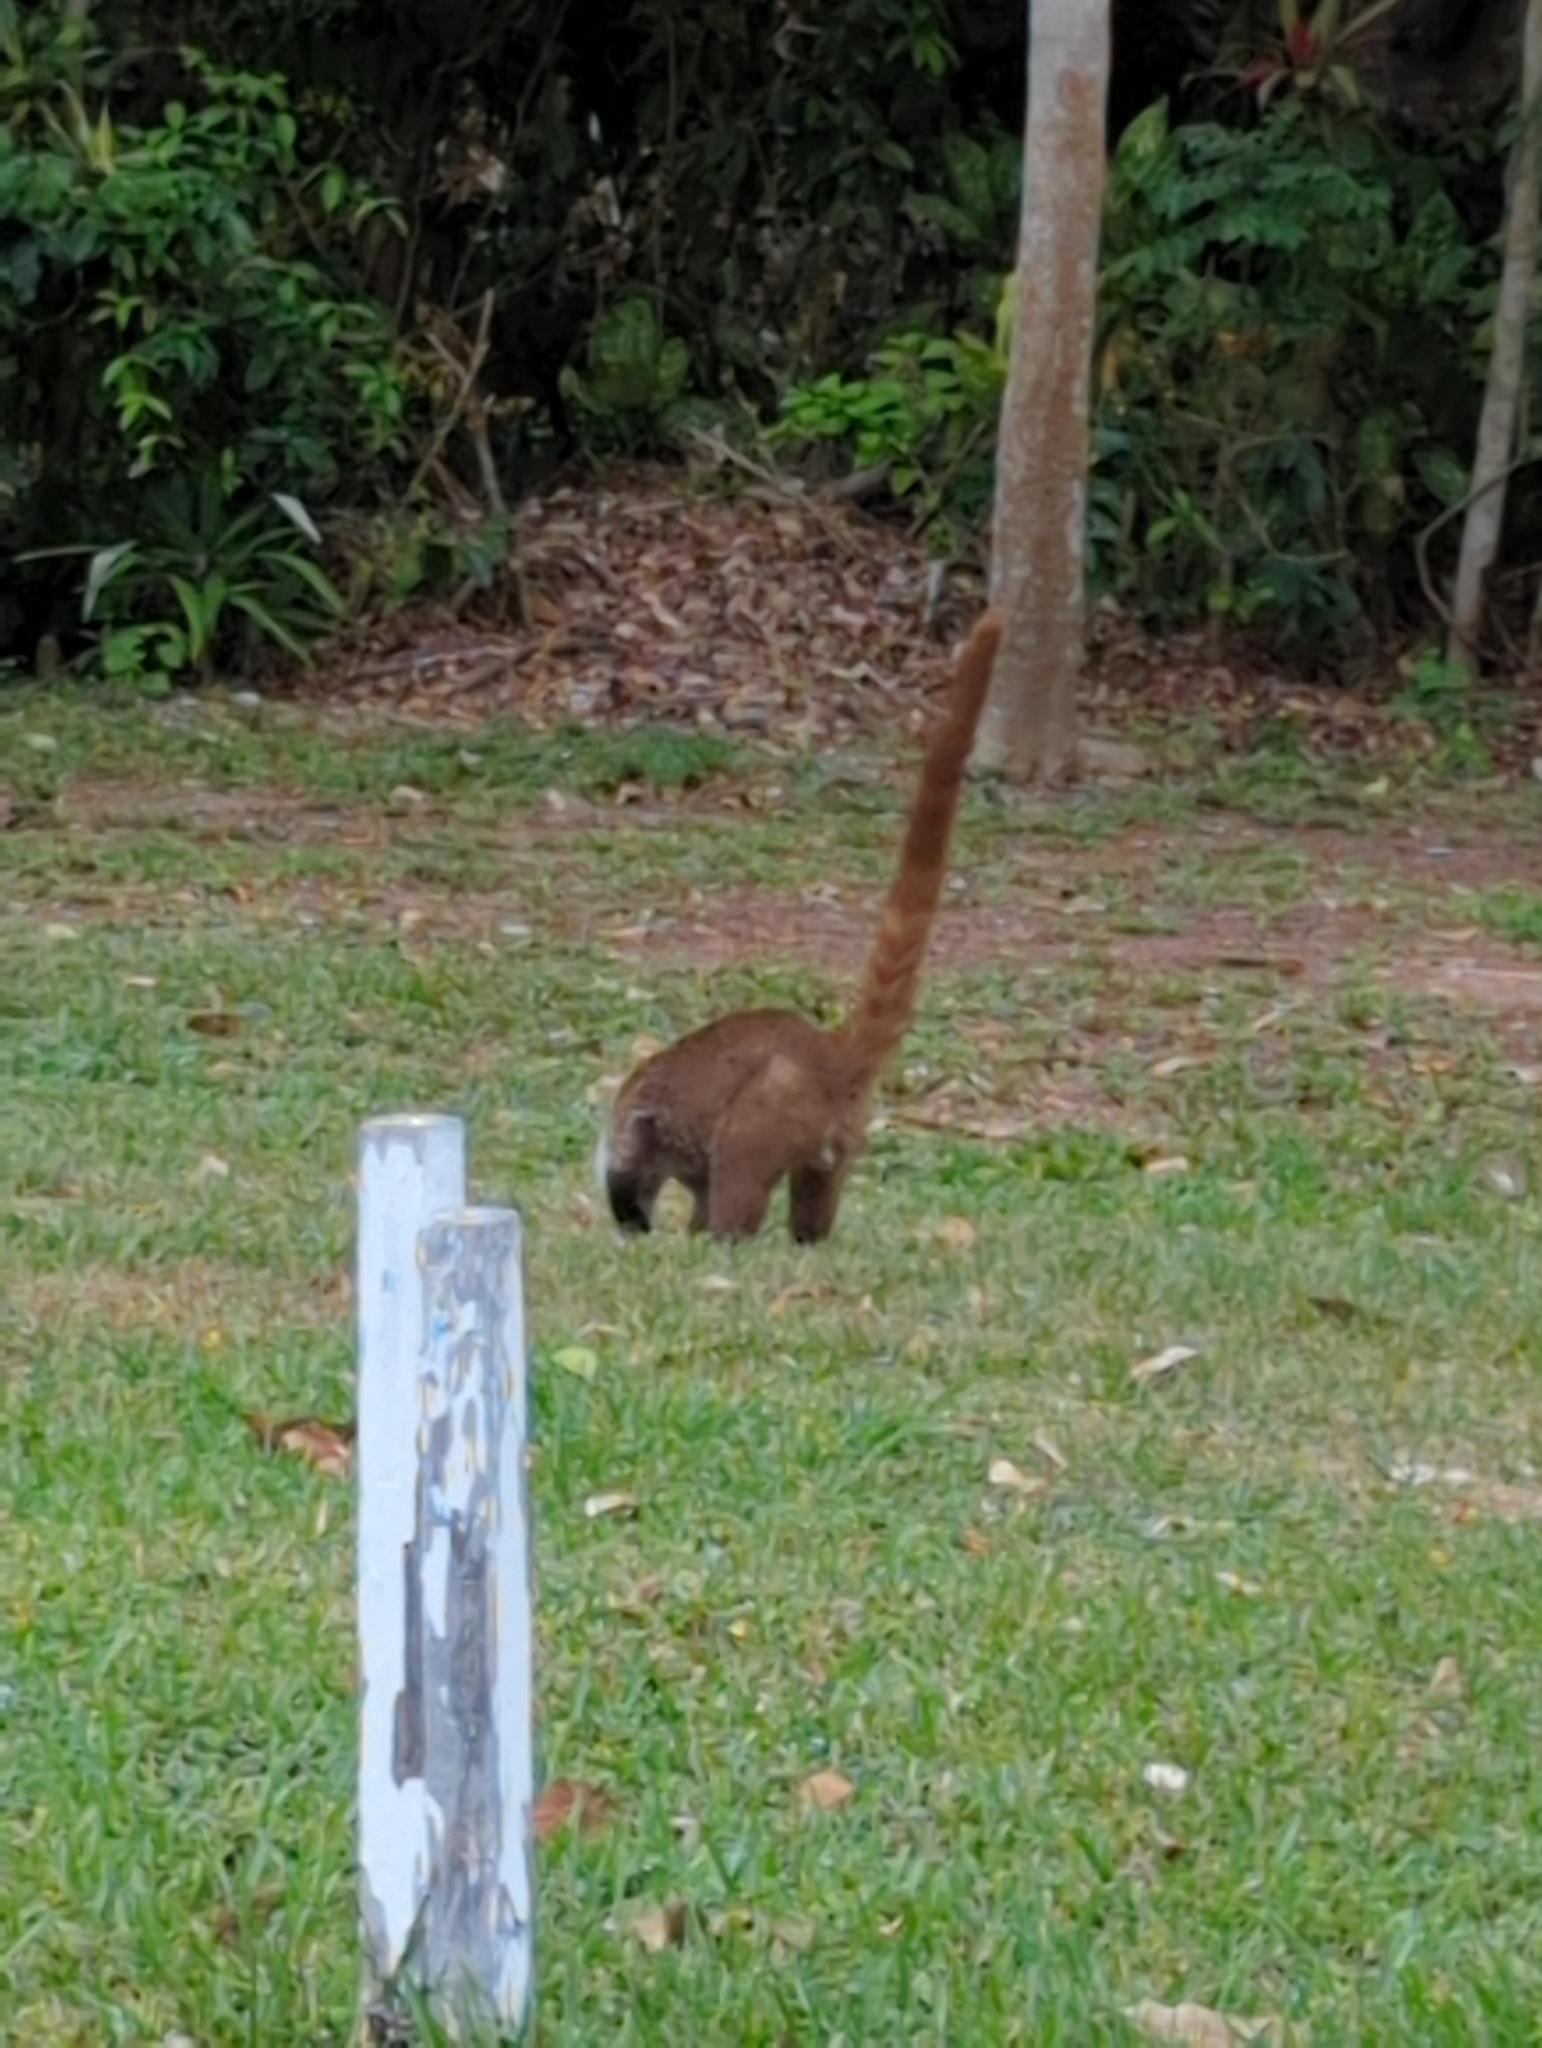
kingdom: Animalia
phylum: Chordata
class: Mammalia
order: Carnivora
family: Procyonidae
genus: Nasua
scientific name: Nasua narica
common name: White-nosed coati
